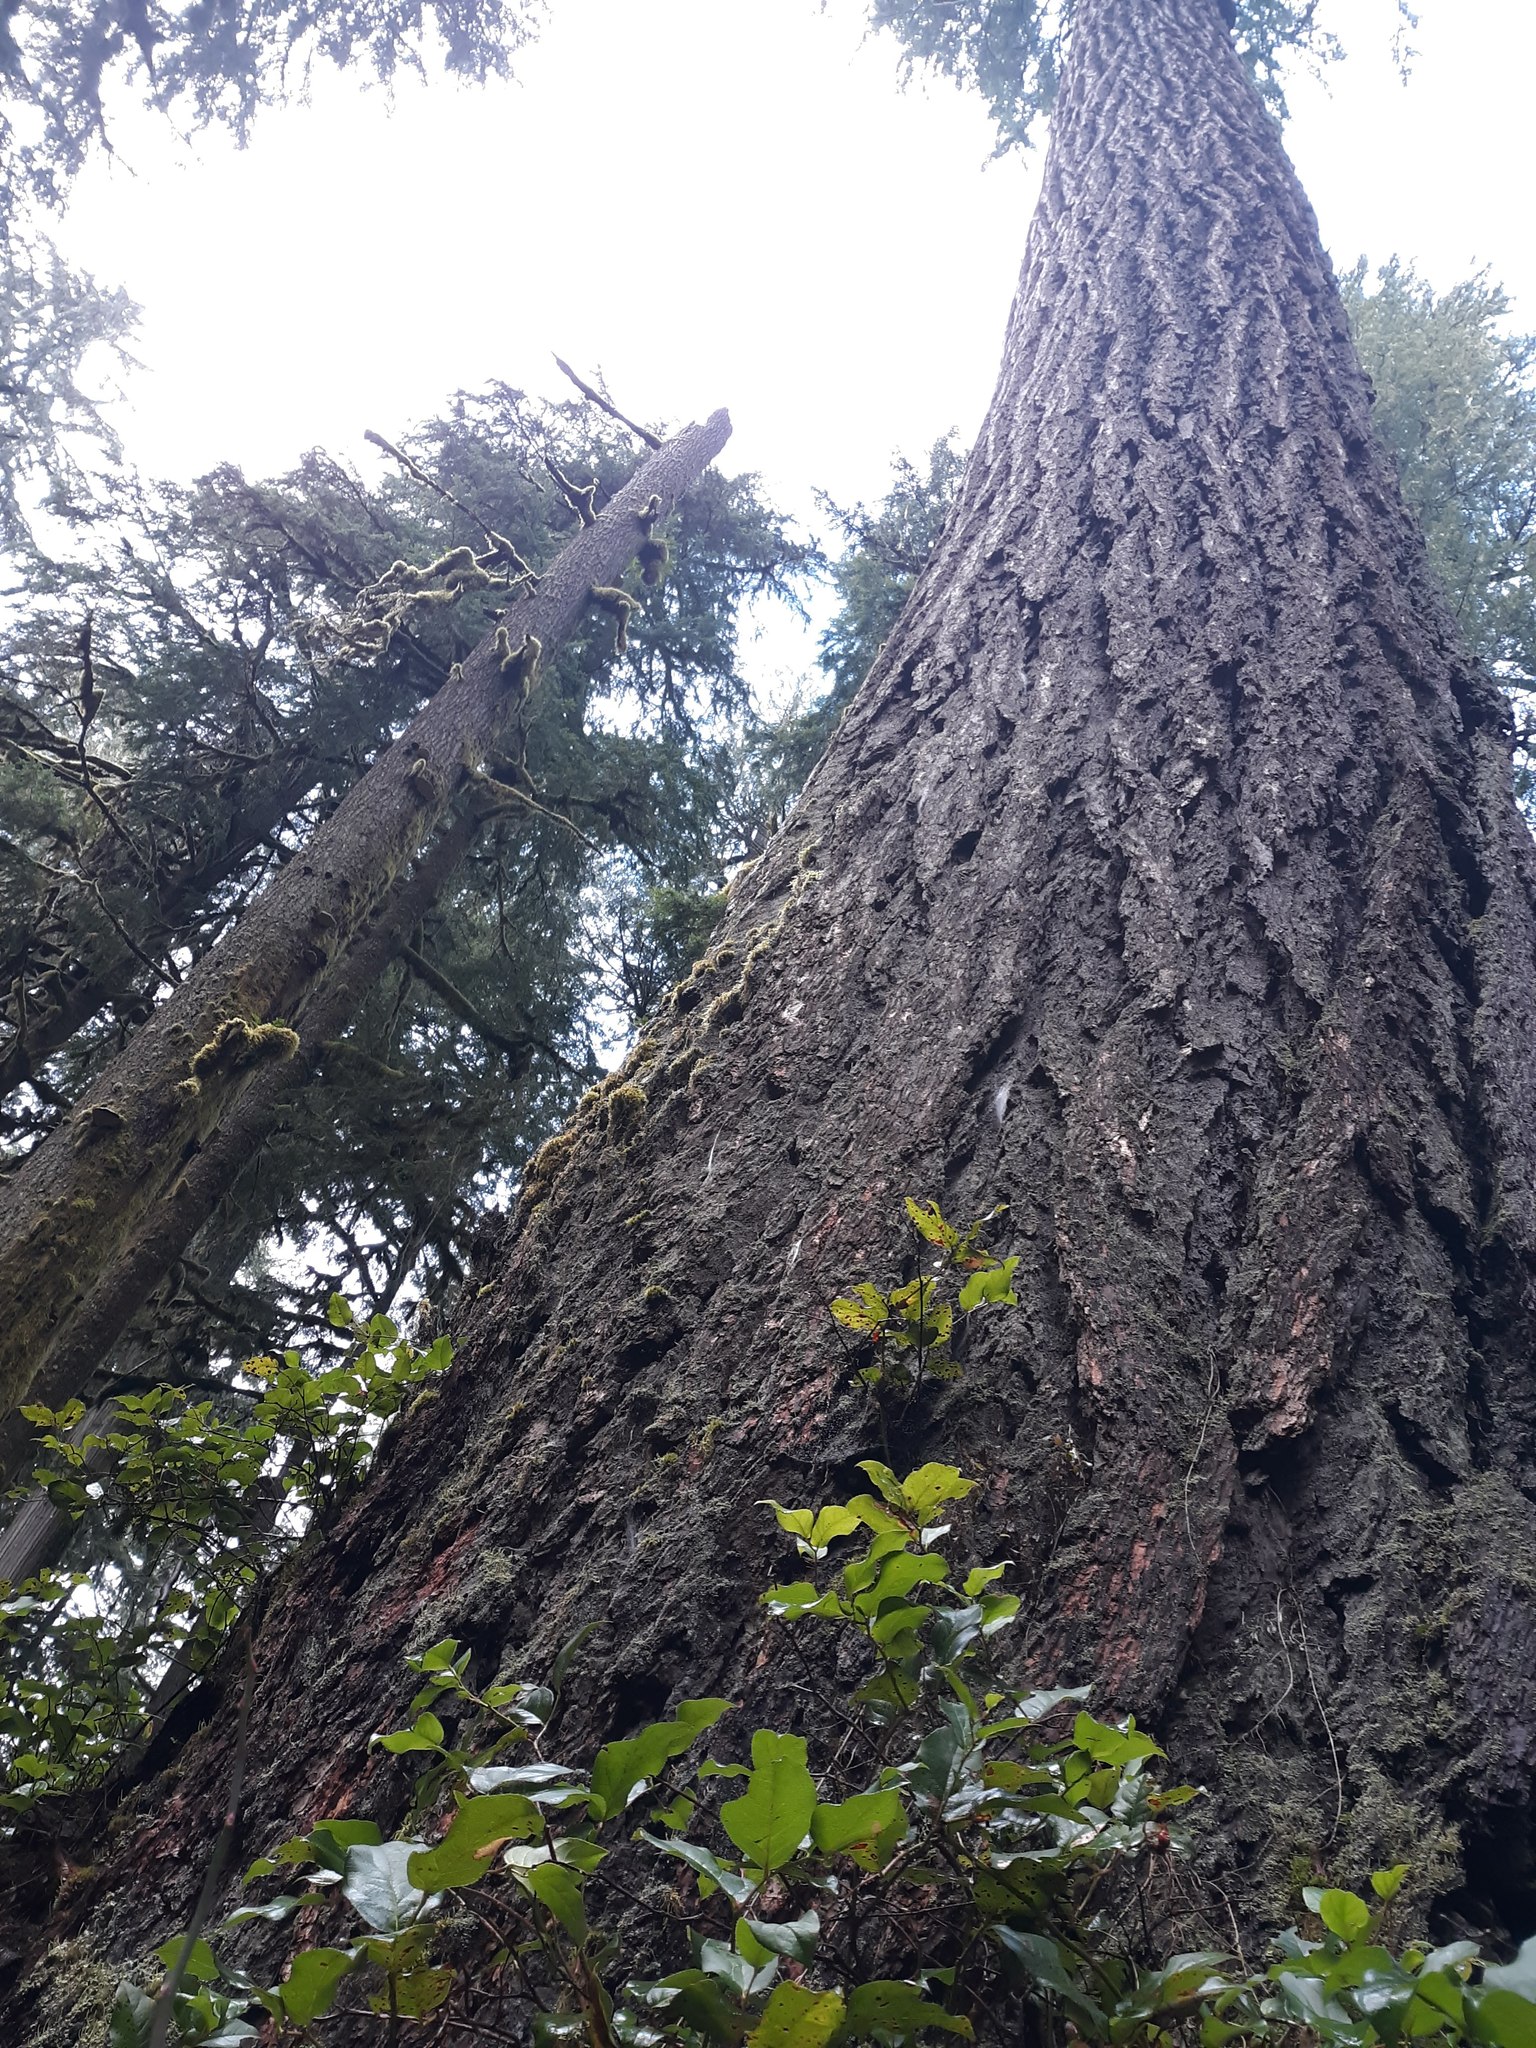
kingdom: Plantae
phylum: Tracheophyta
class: Pinopsida
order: Pinales
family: Pinaceae
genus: Pseudotsuga
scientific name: Pseudotsuga menziesii
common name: Douglas fir
